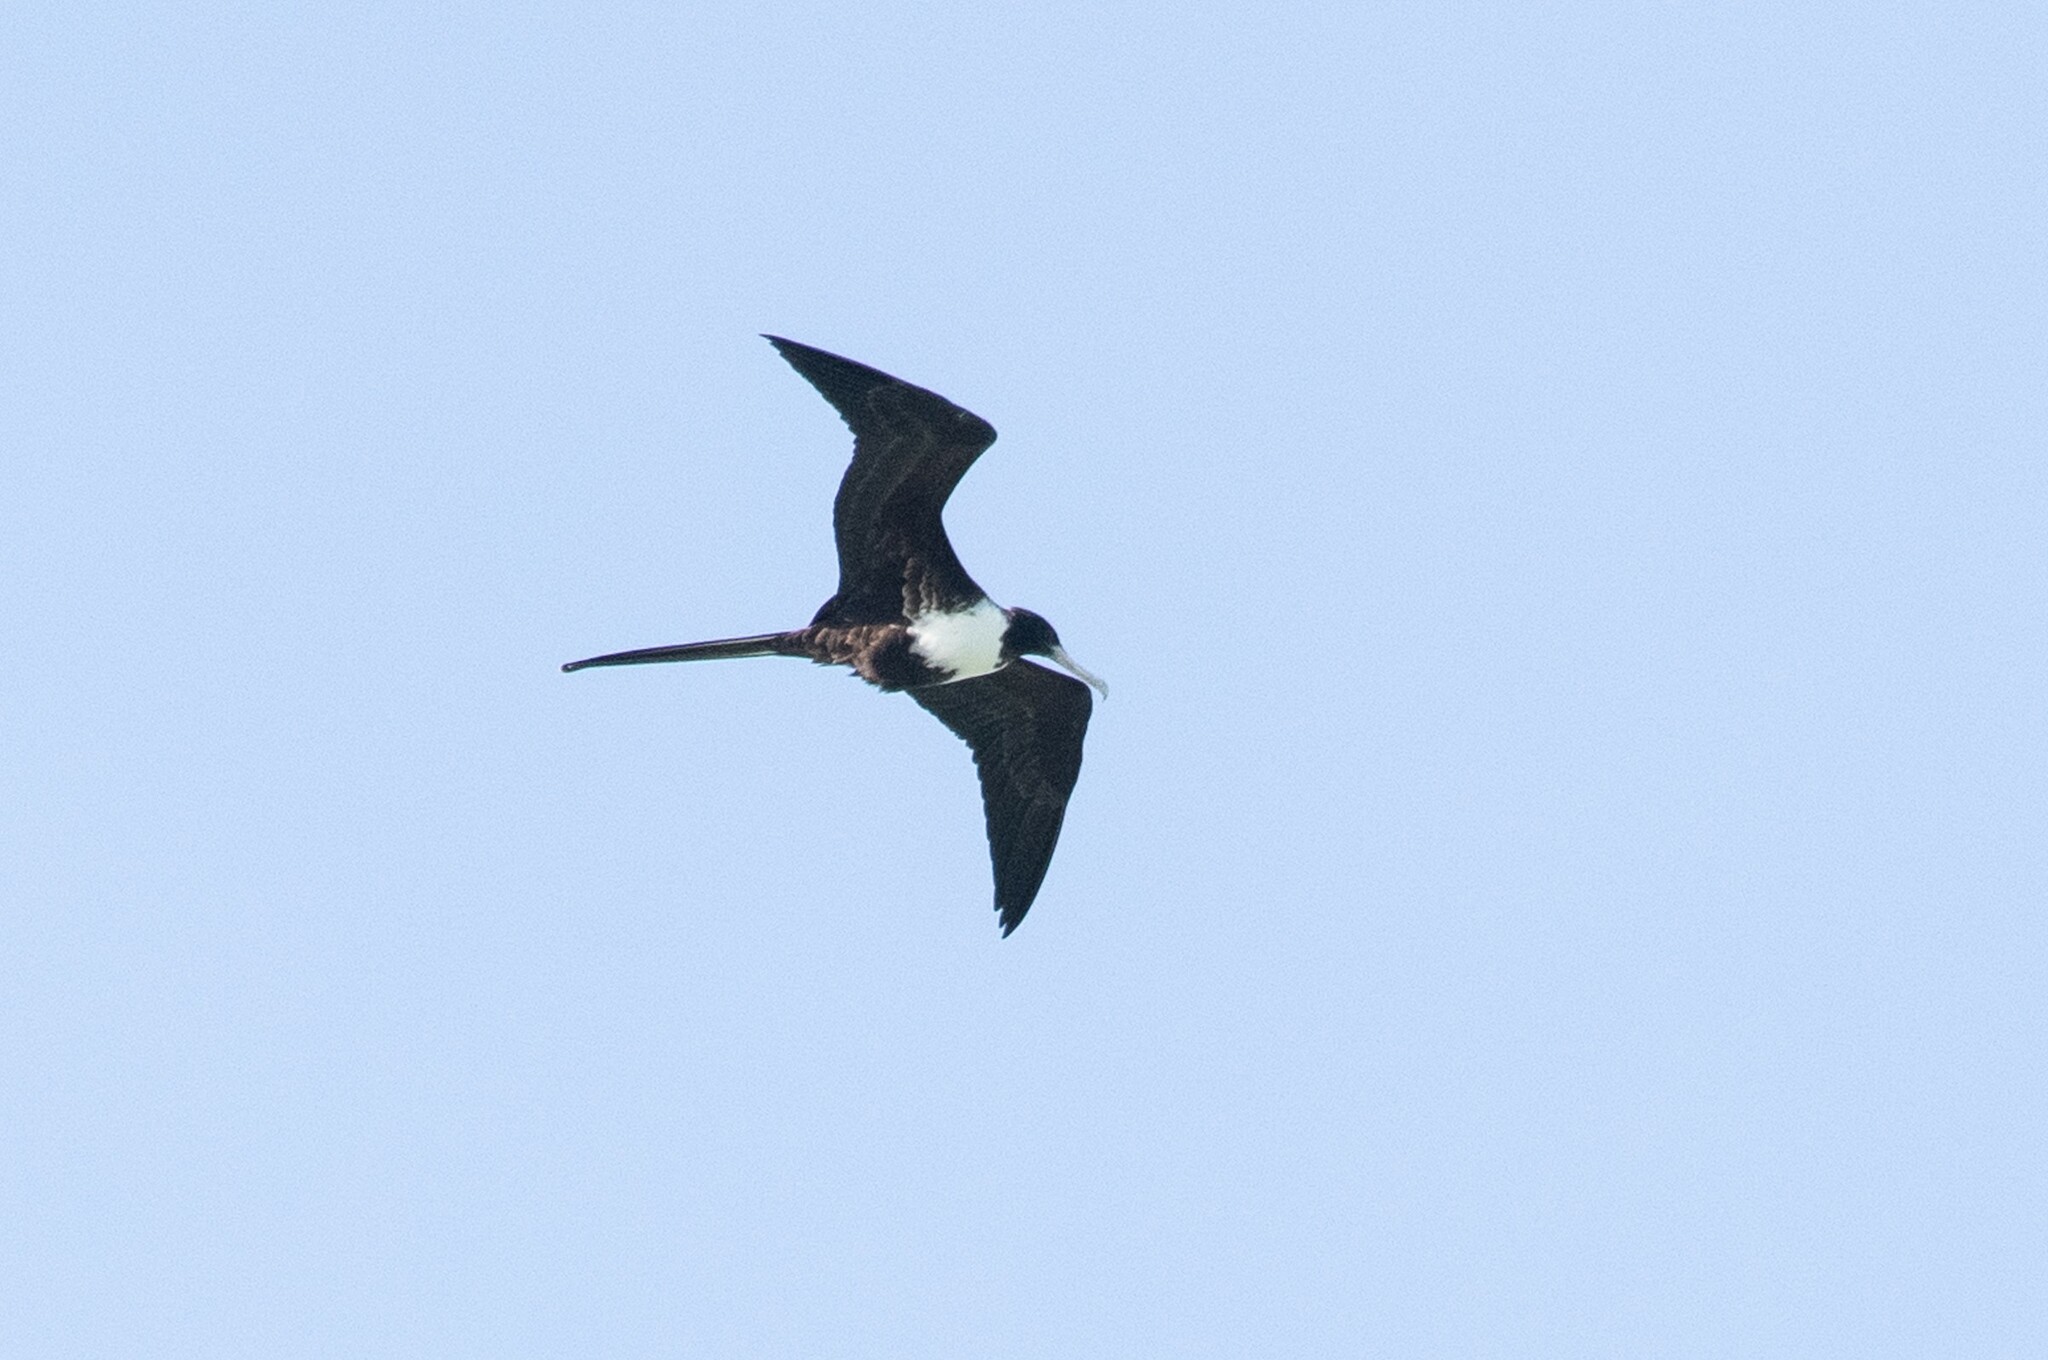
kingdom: Animalia
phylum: Chordata
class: Aves
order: Suliformes
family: Fregatidae
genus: Fregata
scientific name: Fregata magnificens
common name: Magnificent frigatebird
